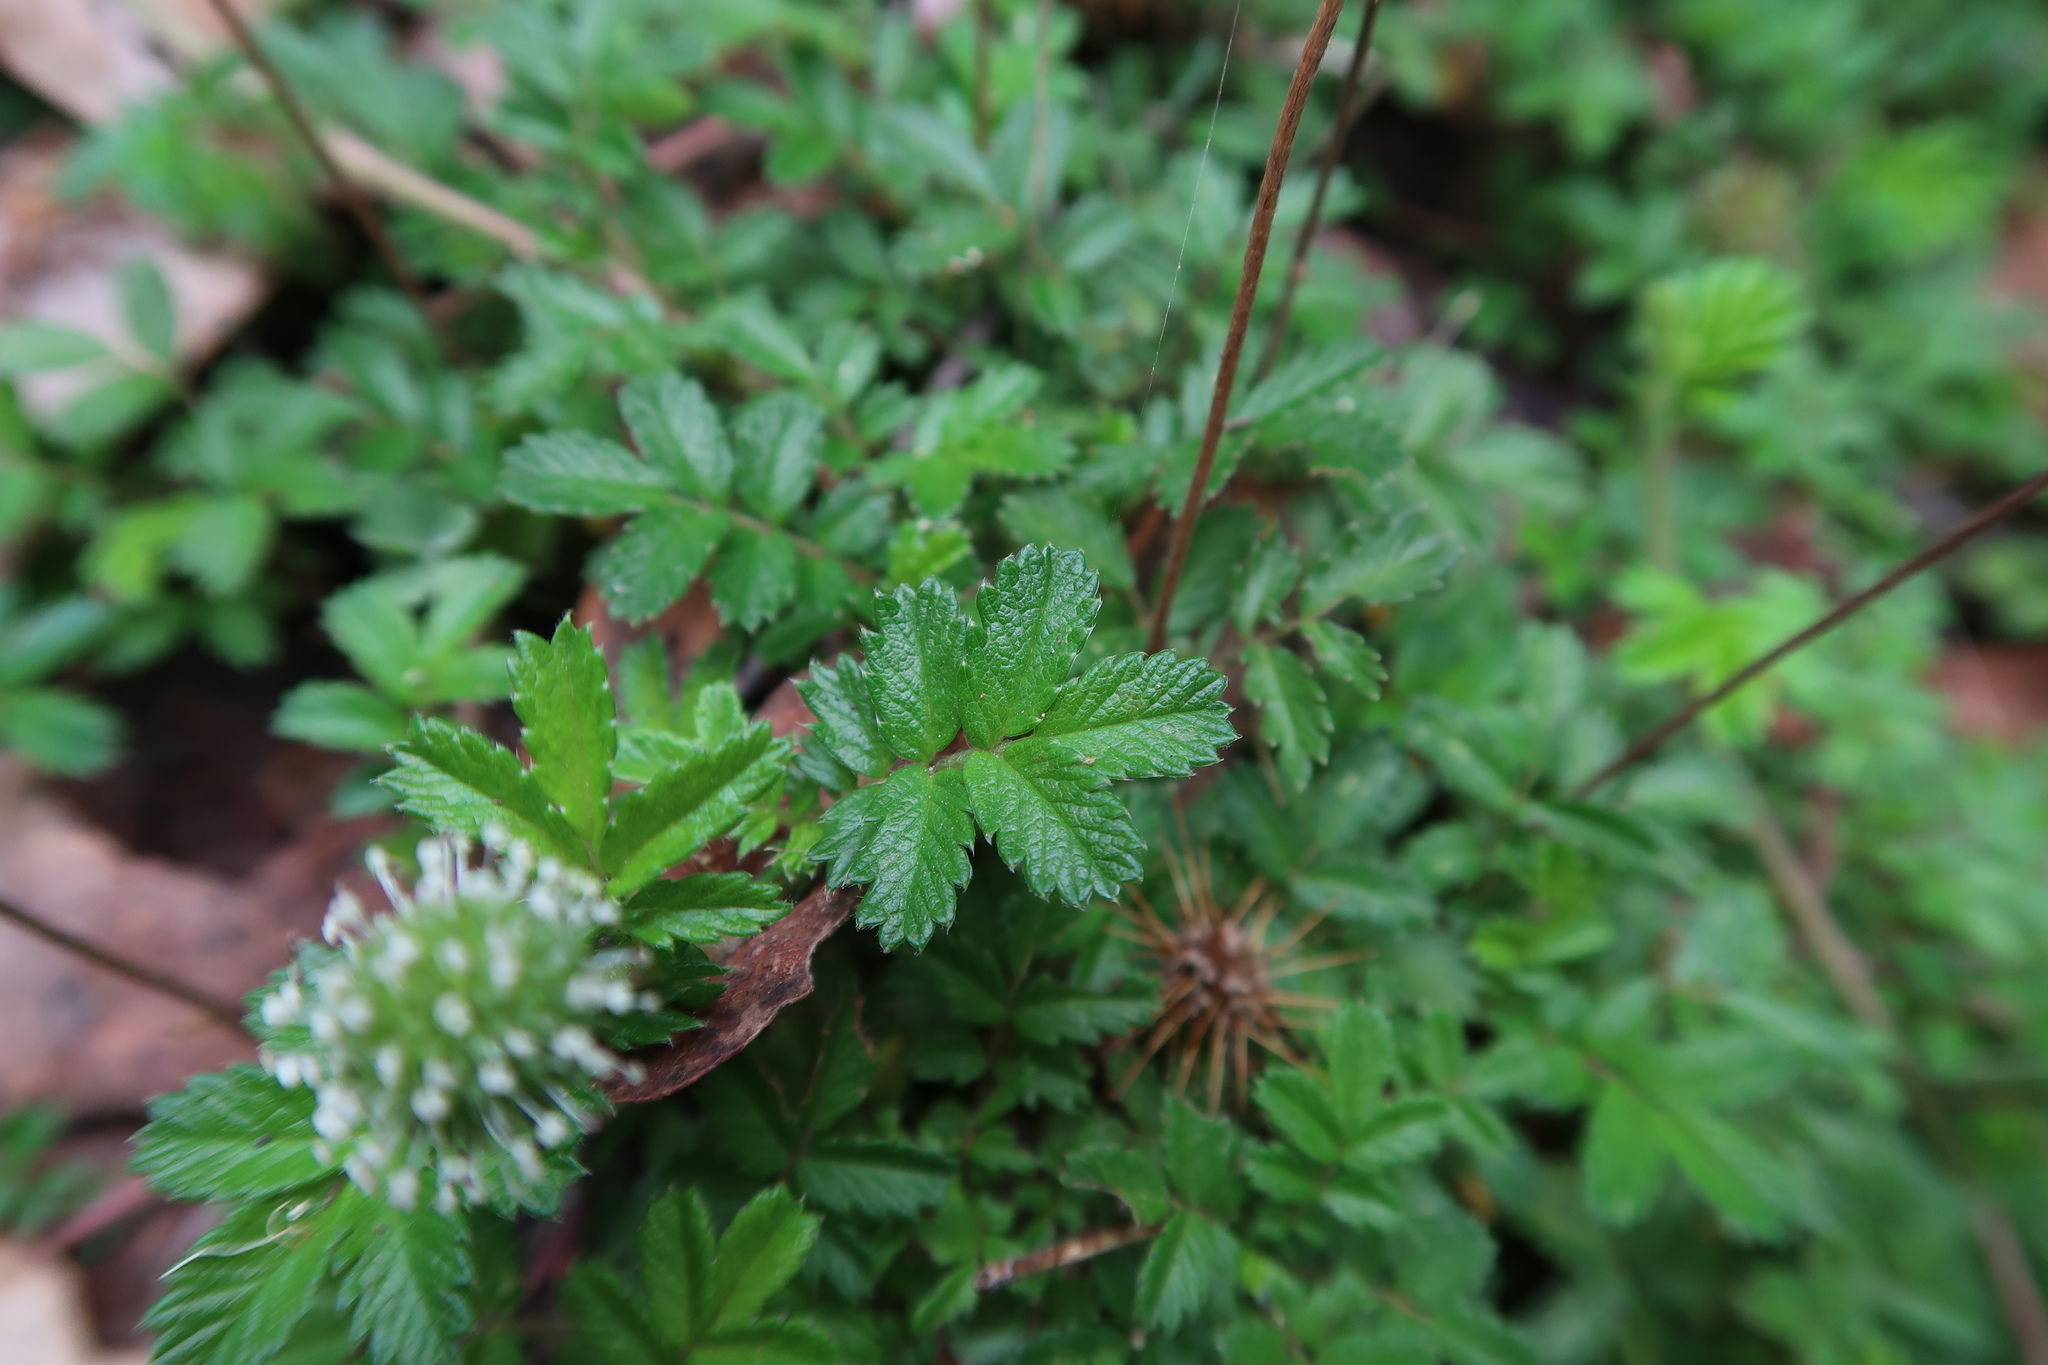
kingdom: Plantae
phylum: Tracheophyta
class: Magnoliopsida
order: Rosales
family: Rosaceae
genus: Acaena
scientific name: Acaena novae-zelandiae
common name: Pirri-pirri-bur
